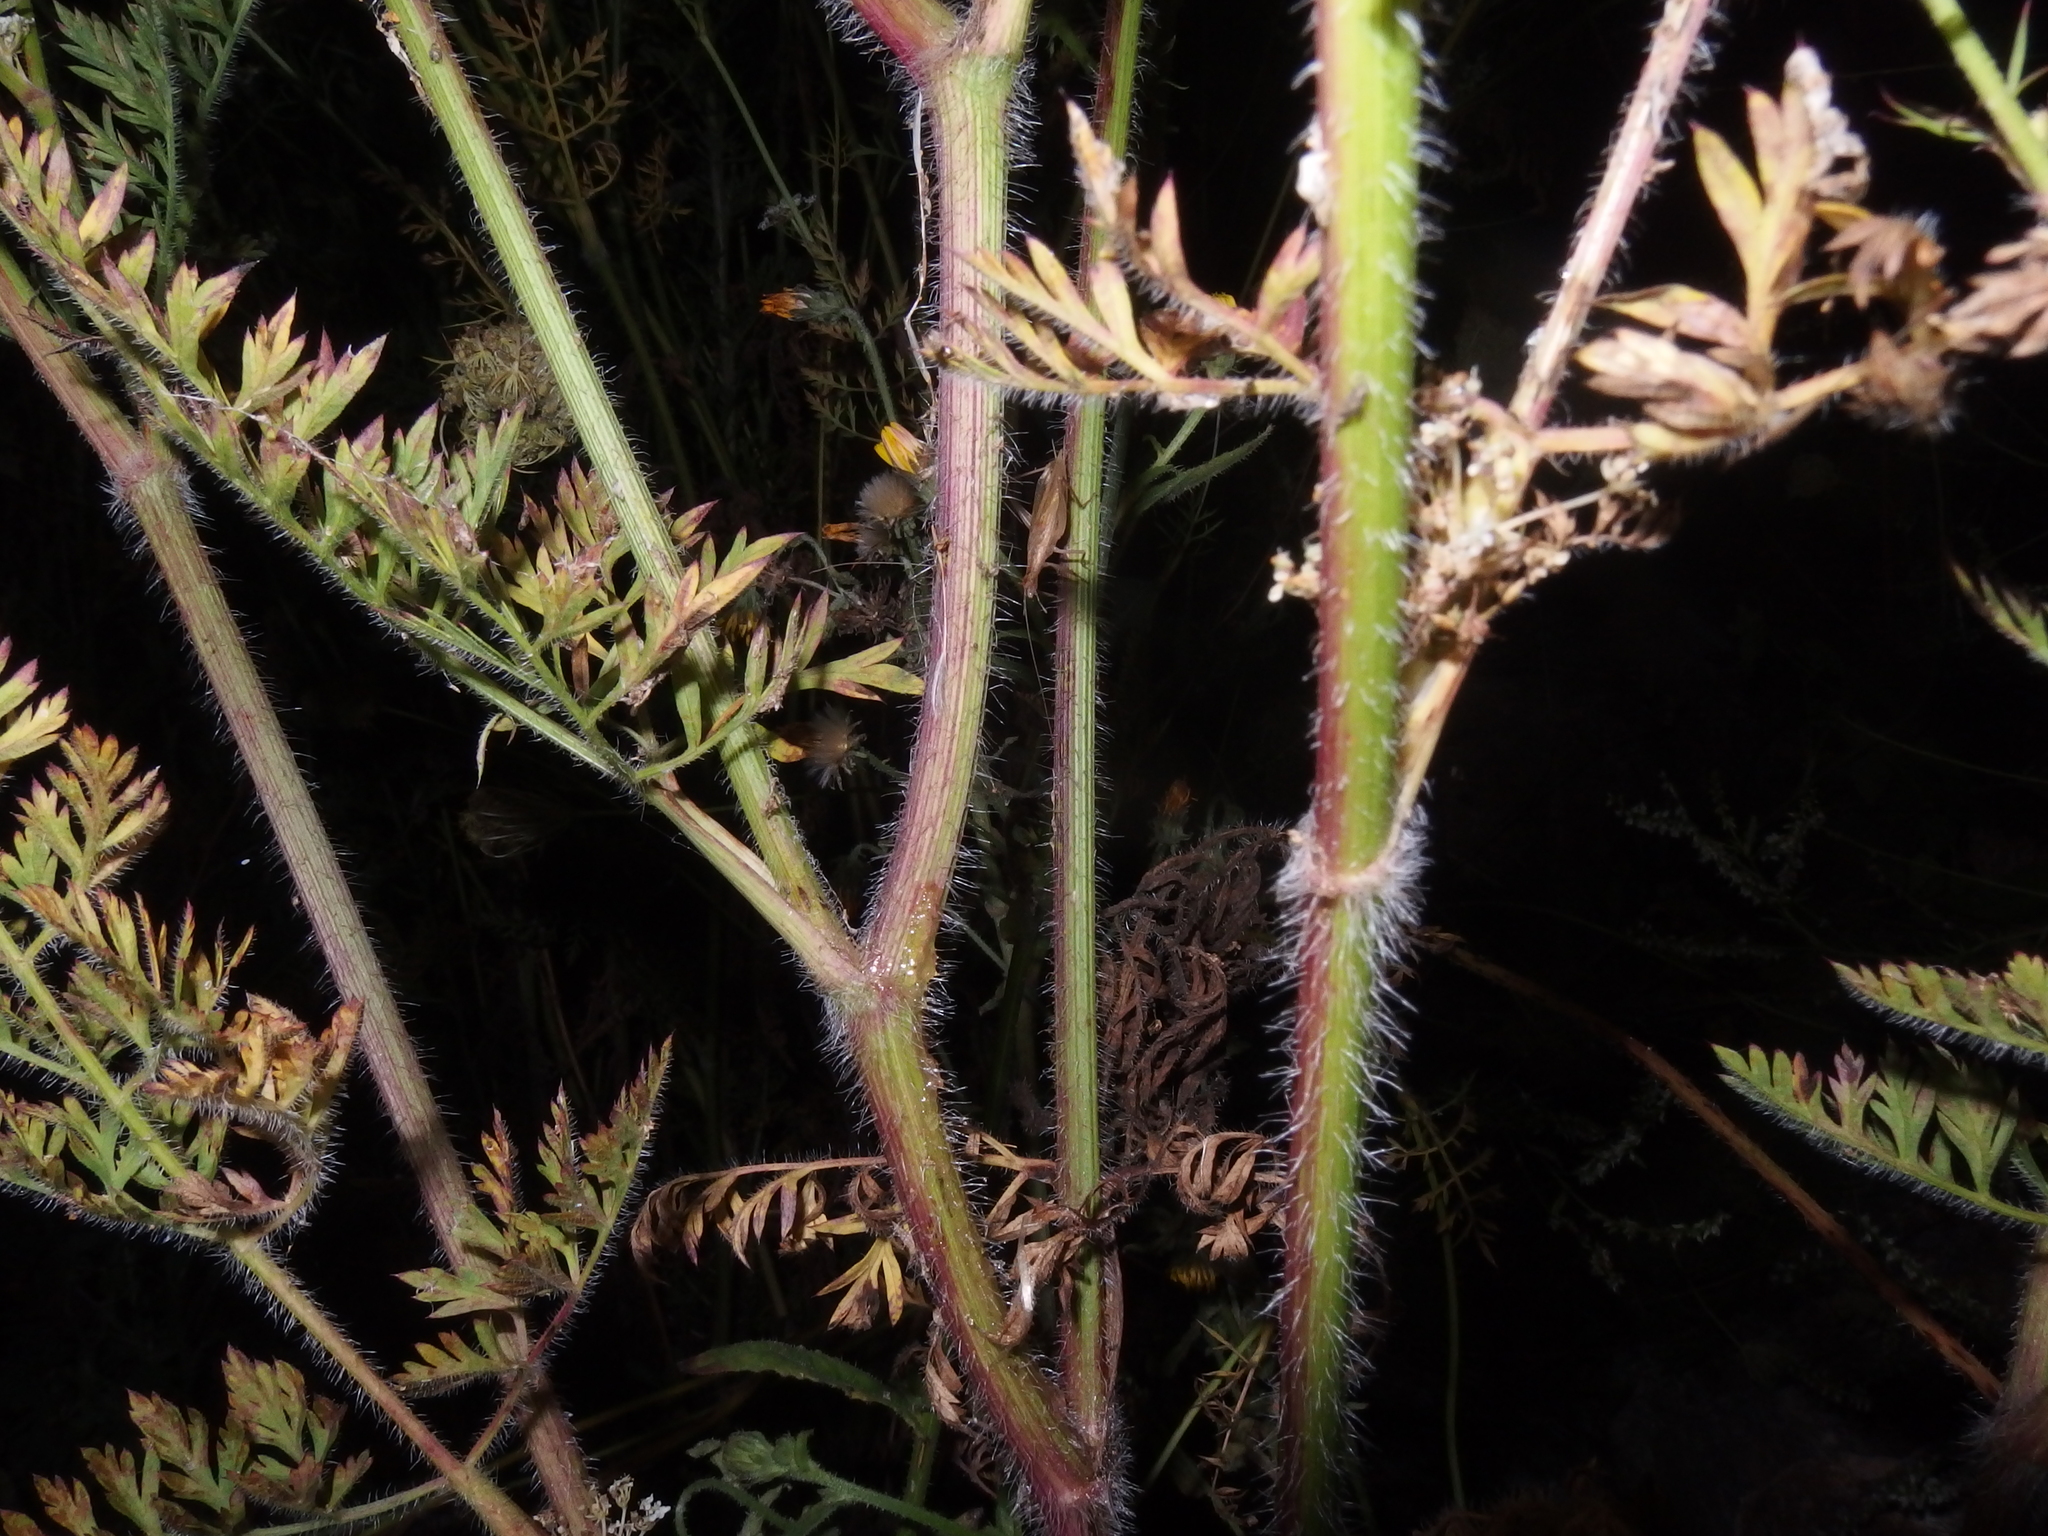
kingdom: Animalia
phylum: Arthropoda
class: Insecta
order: Orthoptera
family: Gryllidae
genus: Oecanthus
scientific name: Oecanthus pellucens
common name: Tree-cricket
